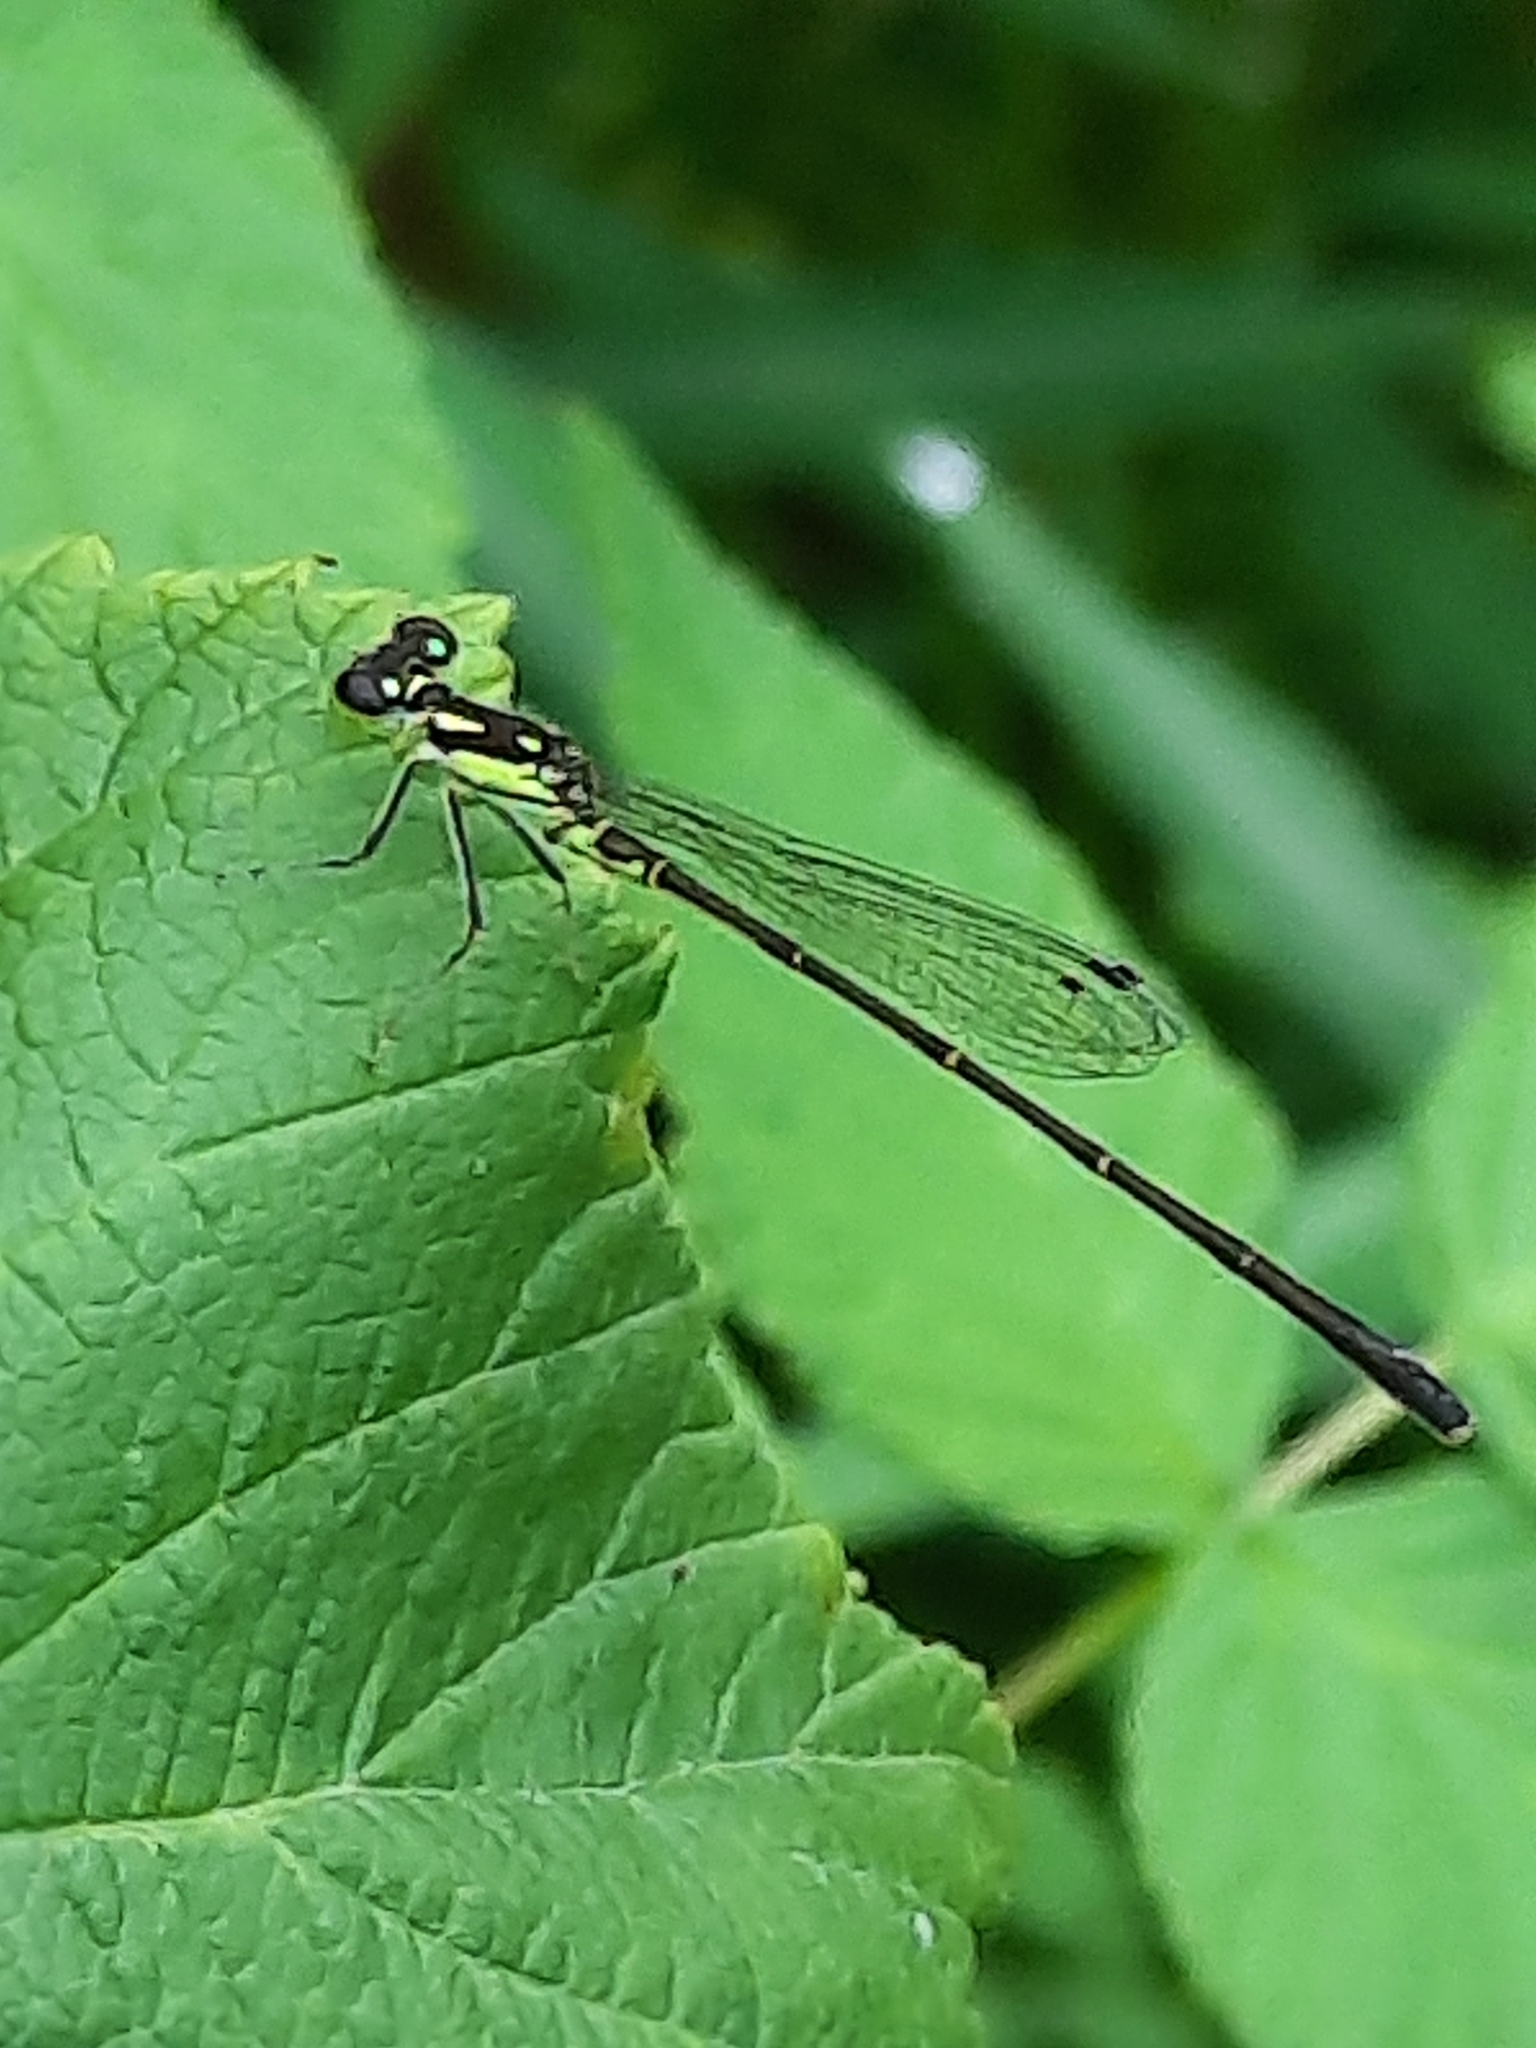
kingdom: Animalia
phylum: Arthropoda
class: Insecta
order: Odonata
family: Coenagrionidae
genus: Ischnura
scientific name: Ischnura posita
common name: Fragile forktail
